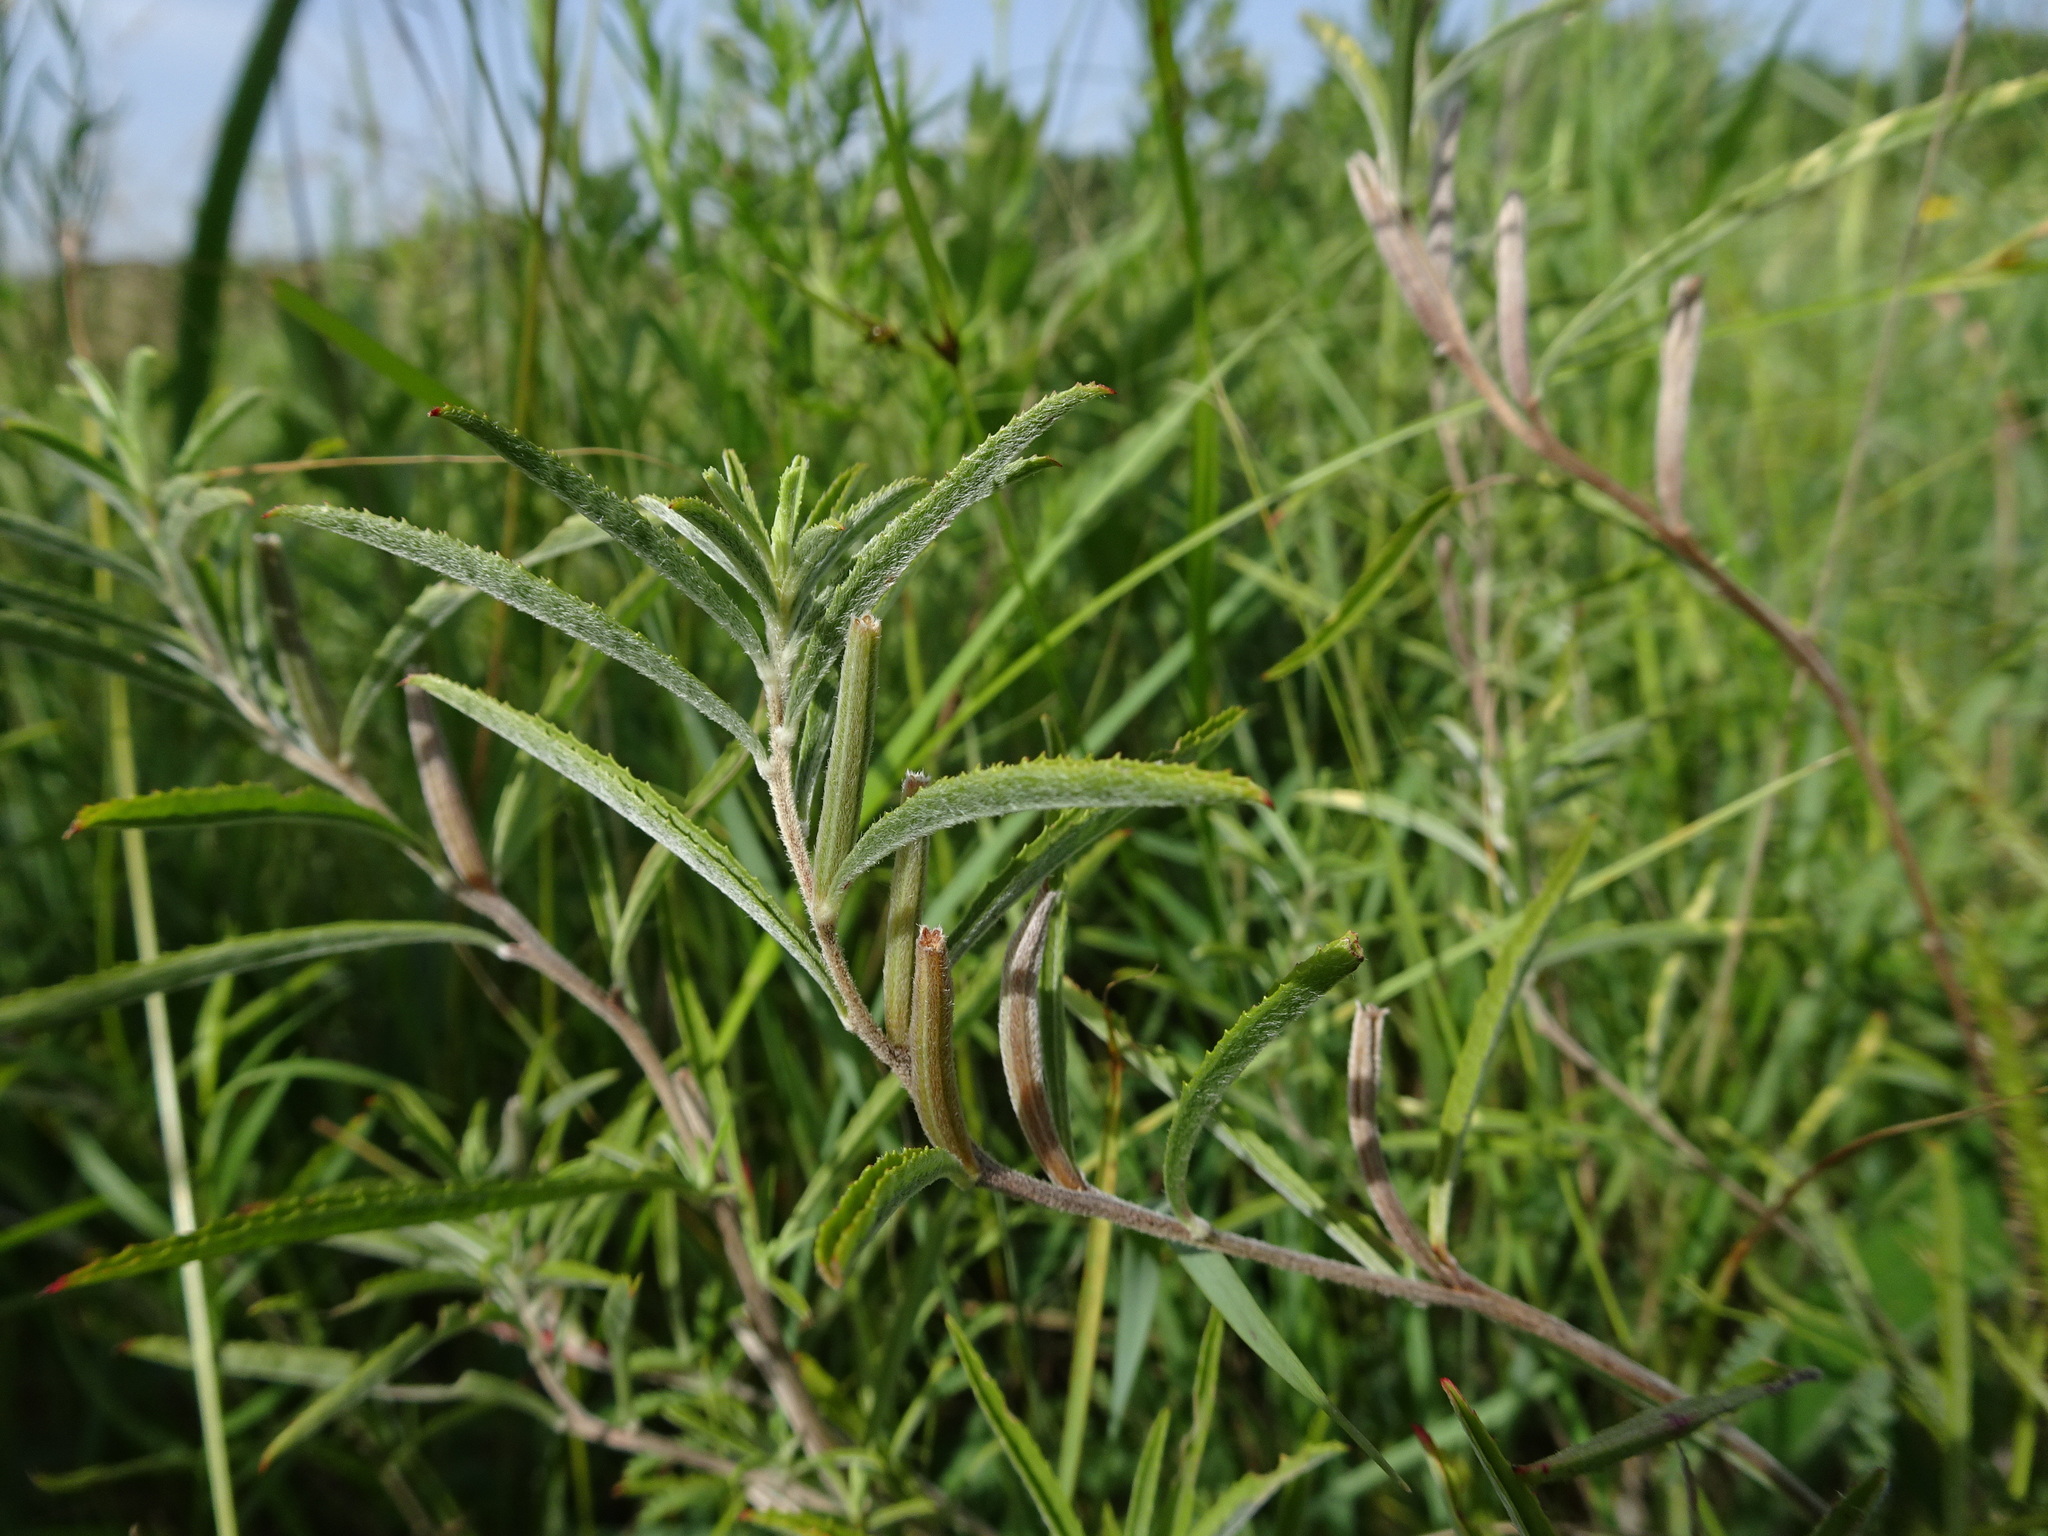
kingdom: Plantae
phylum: Tracheophyta
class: Magnoliopsida
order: Myrtales
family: Onagraceae
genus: Oenothera
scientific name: Oenothera serrulata
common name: Half-shrub calylophus
